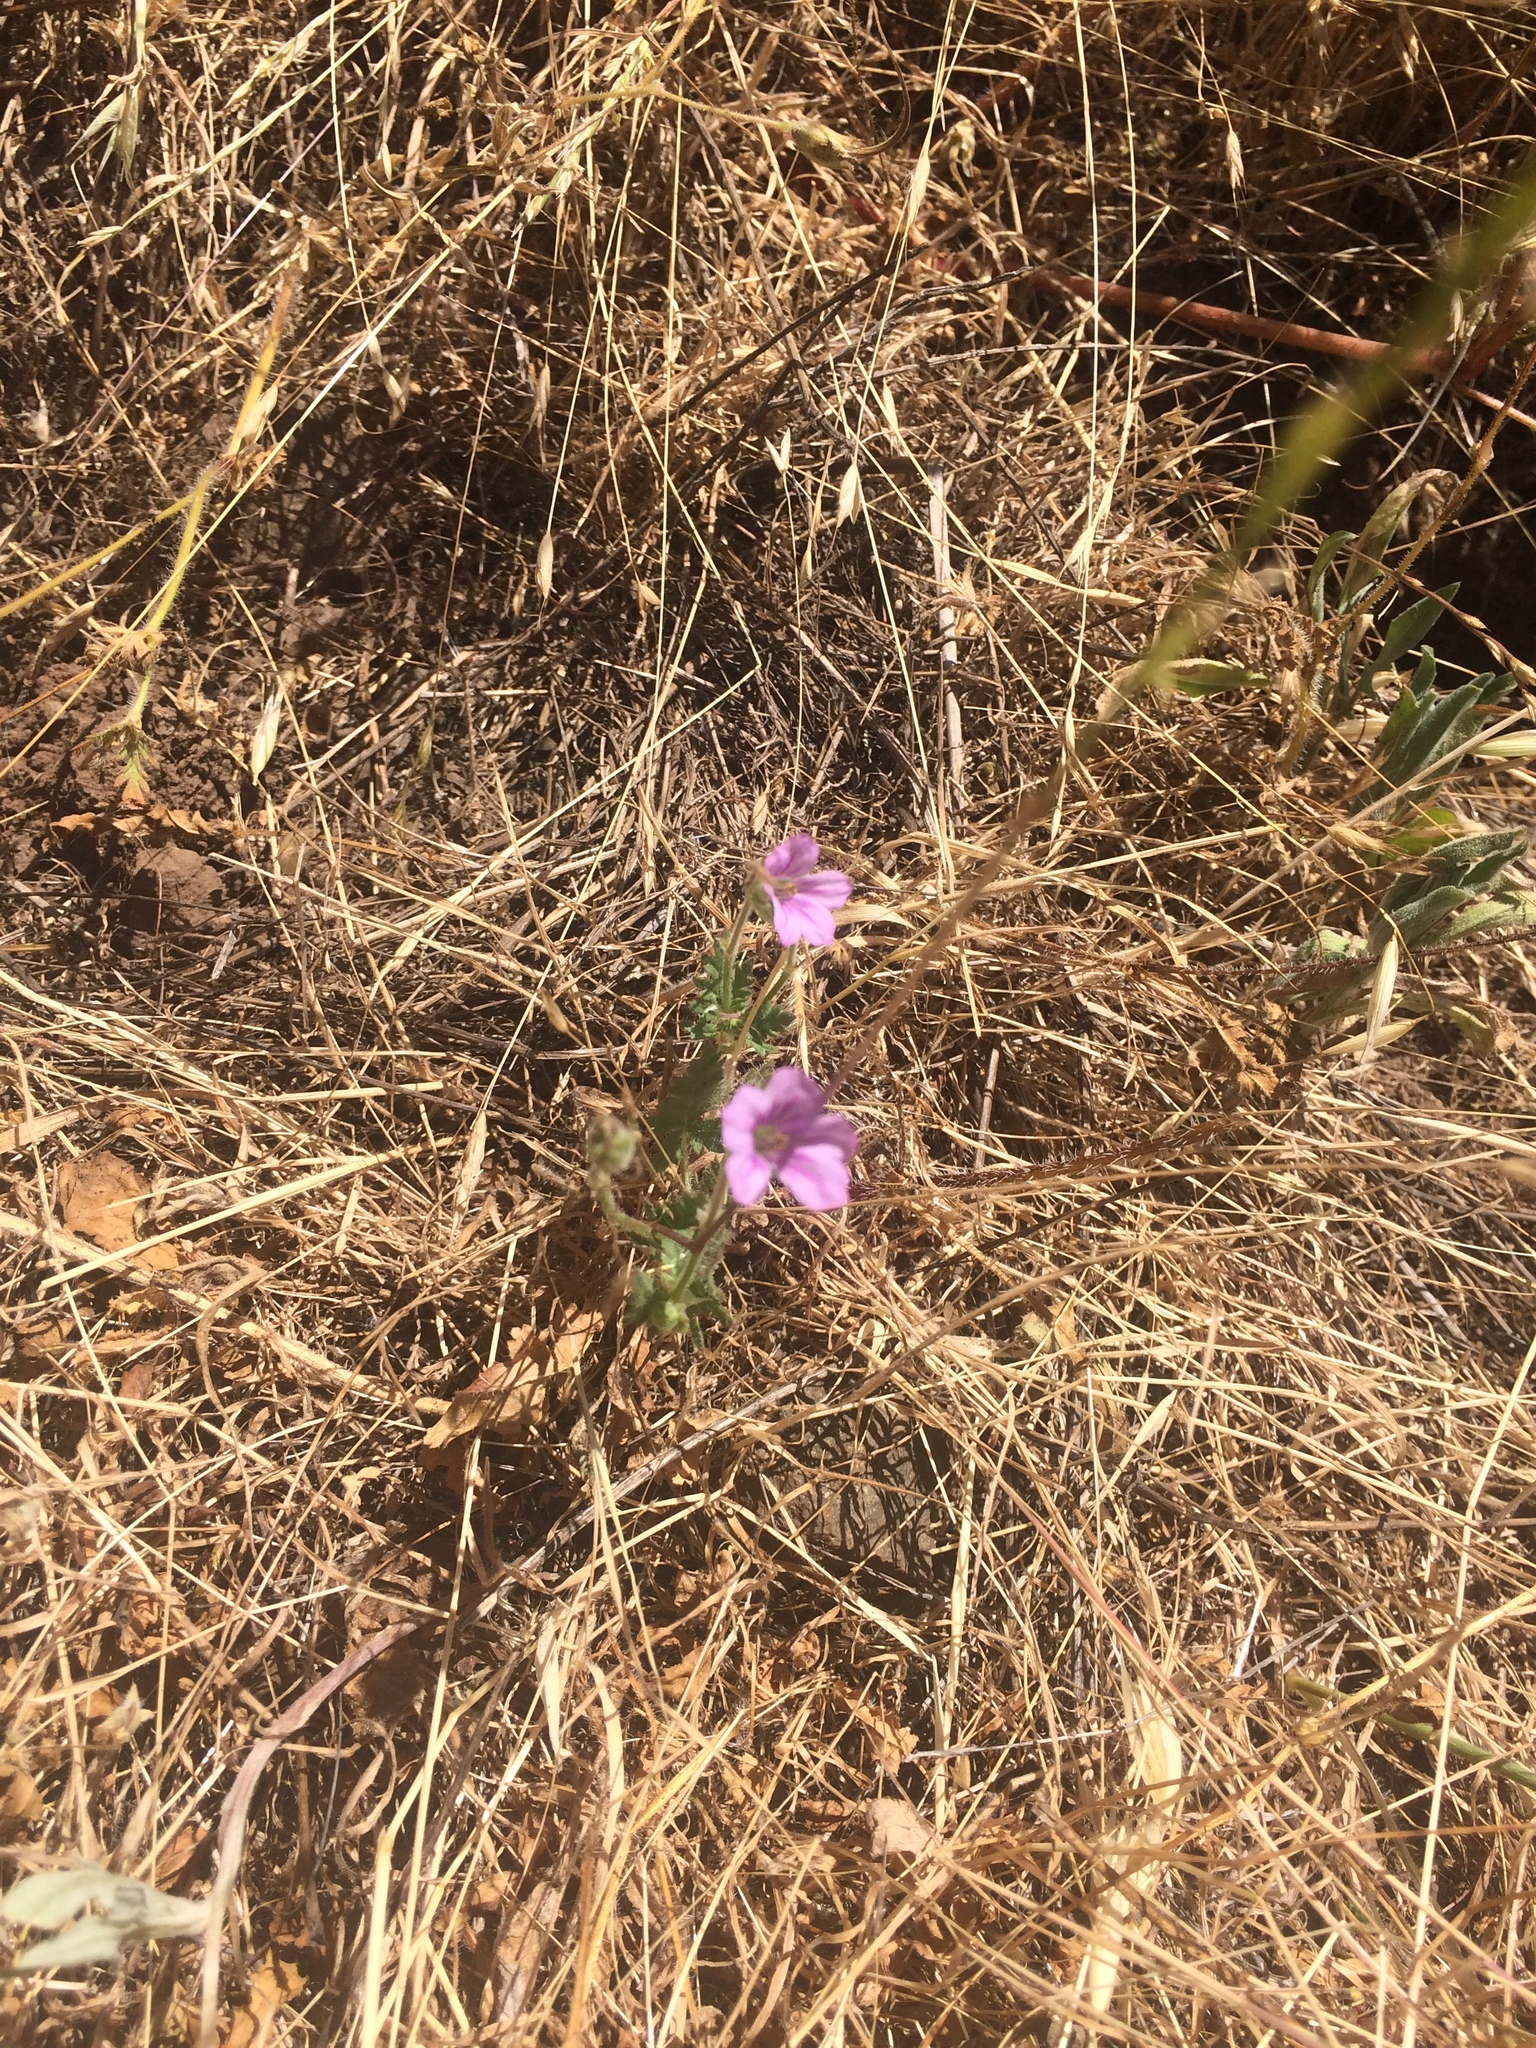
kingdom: Plantae
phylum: Tracheophyta
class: Magnoliopsida
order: Geraniales
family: Geraniaceae
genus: Erodium
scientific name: Erodium botrys
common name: Mediterranean stork's-bill
